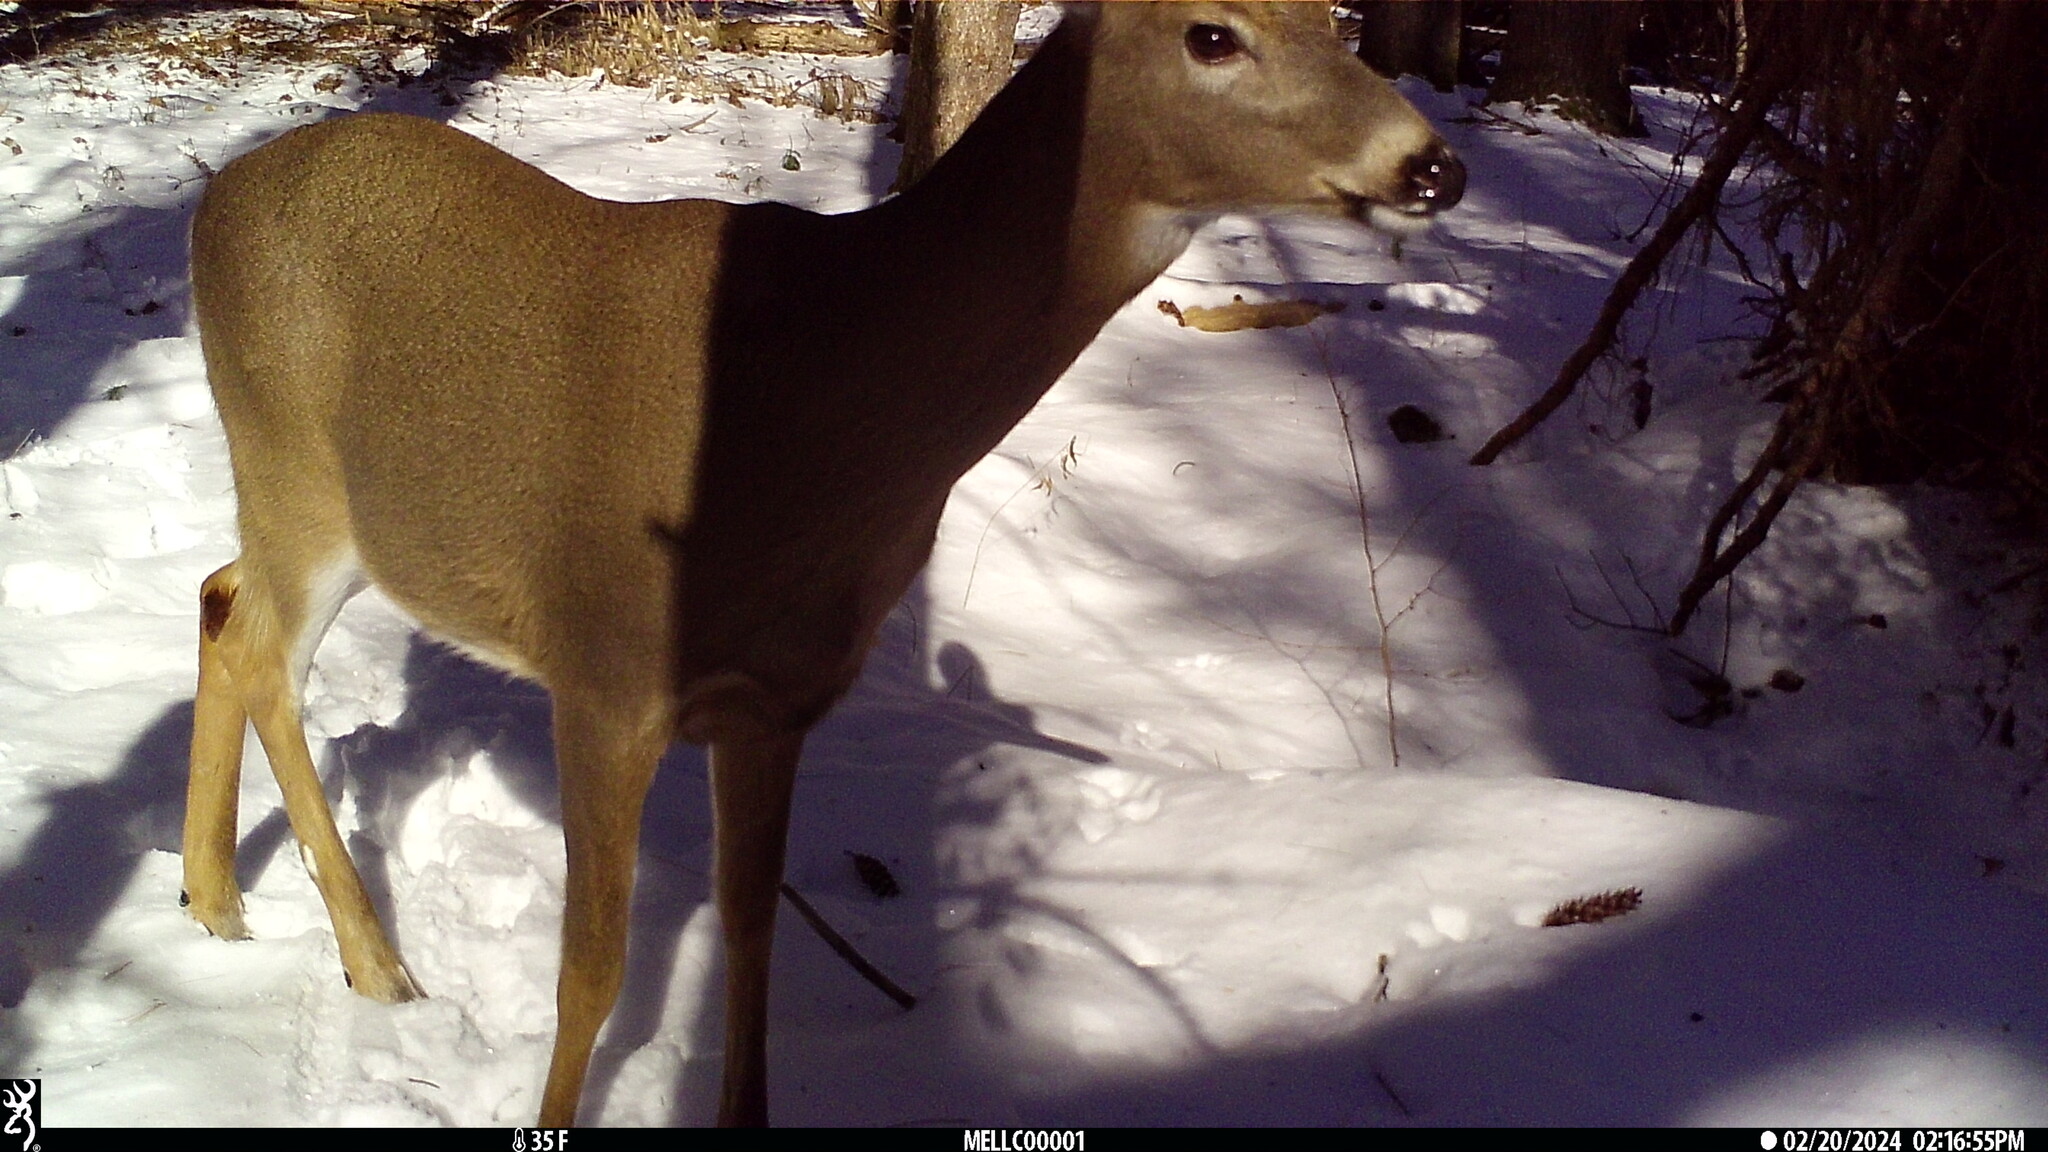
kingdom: Animalia
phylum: Chordata
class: Mammalia
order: Artiodactyla
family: Cervidae
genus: Odocoileus
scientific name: Odocoileus virginianus
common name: White-tailed deer
